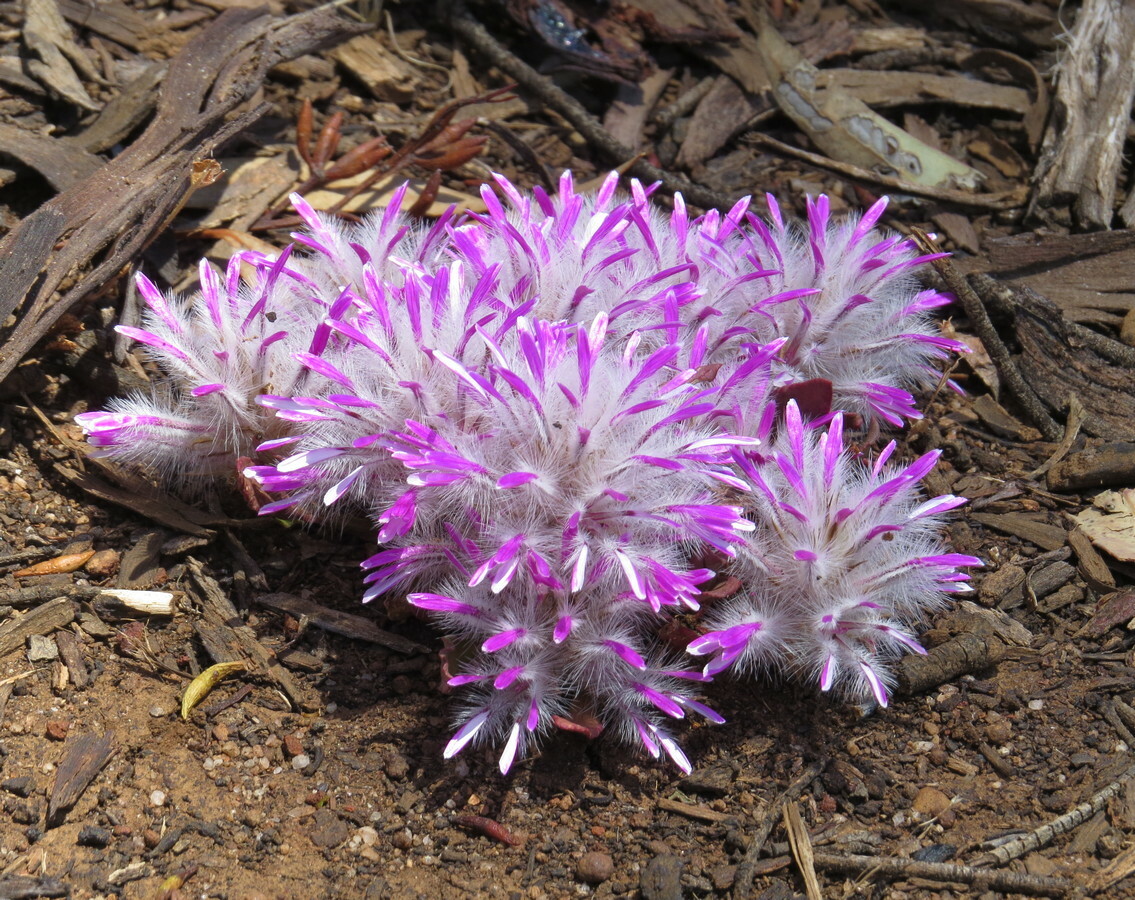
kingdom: Plantae
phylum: Tracheophyta
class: Magnoliopsida
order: Caryophyllales
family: Amaranthaceae
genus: Ptilotus
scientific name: Ptilotus manglesii
